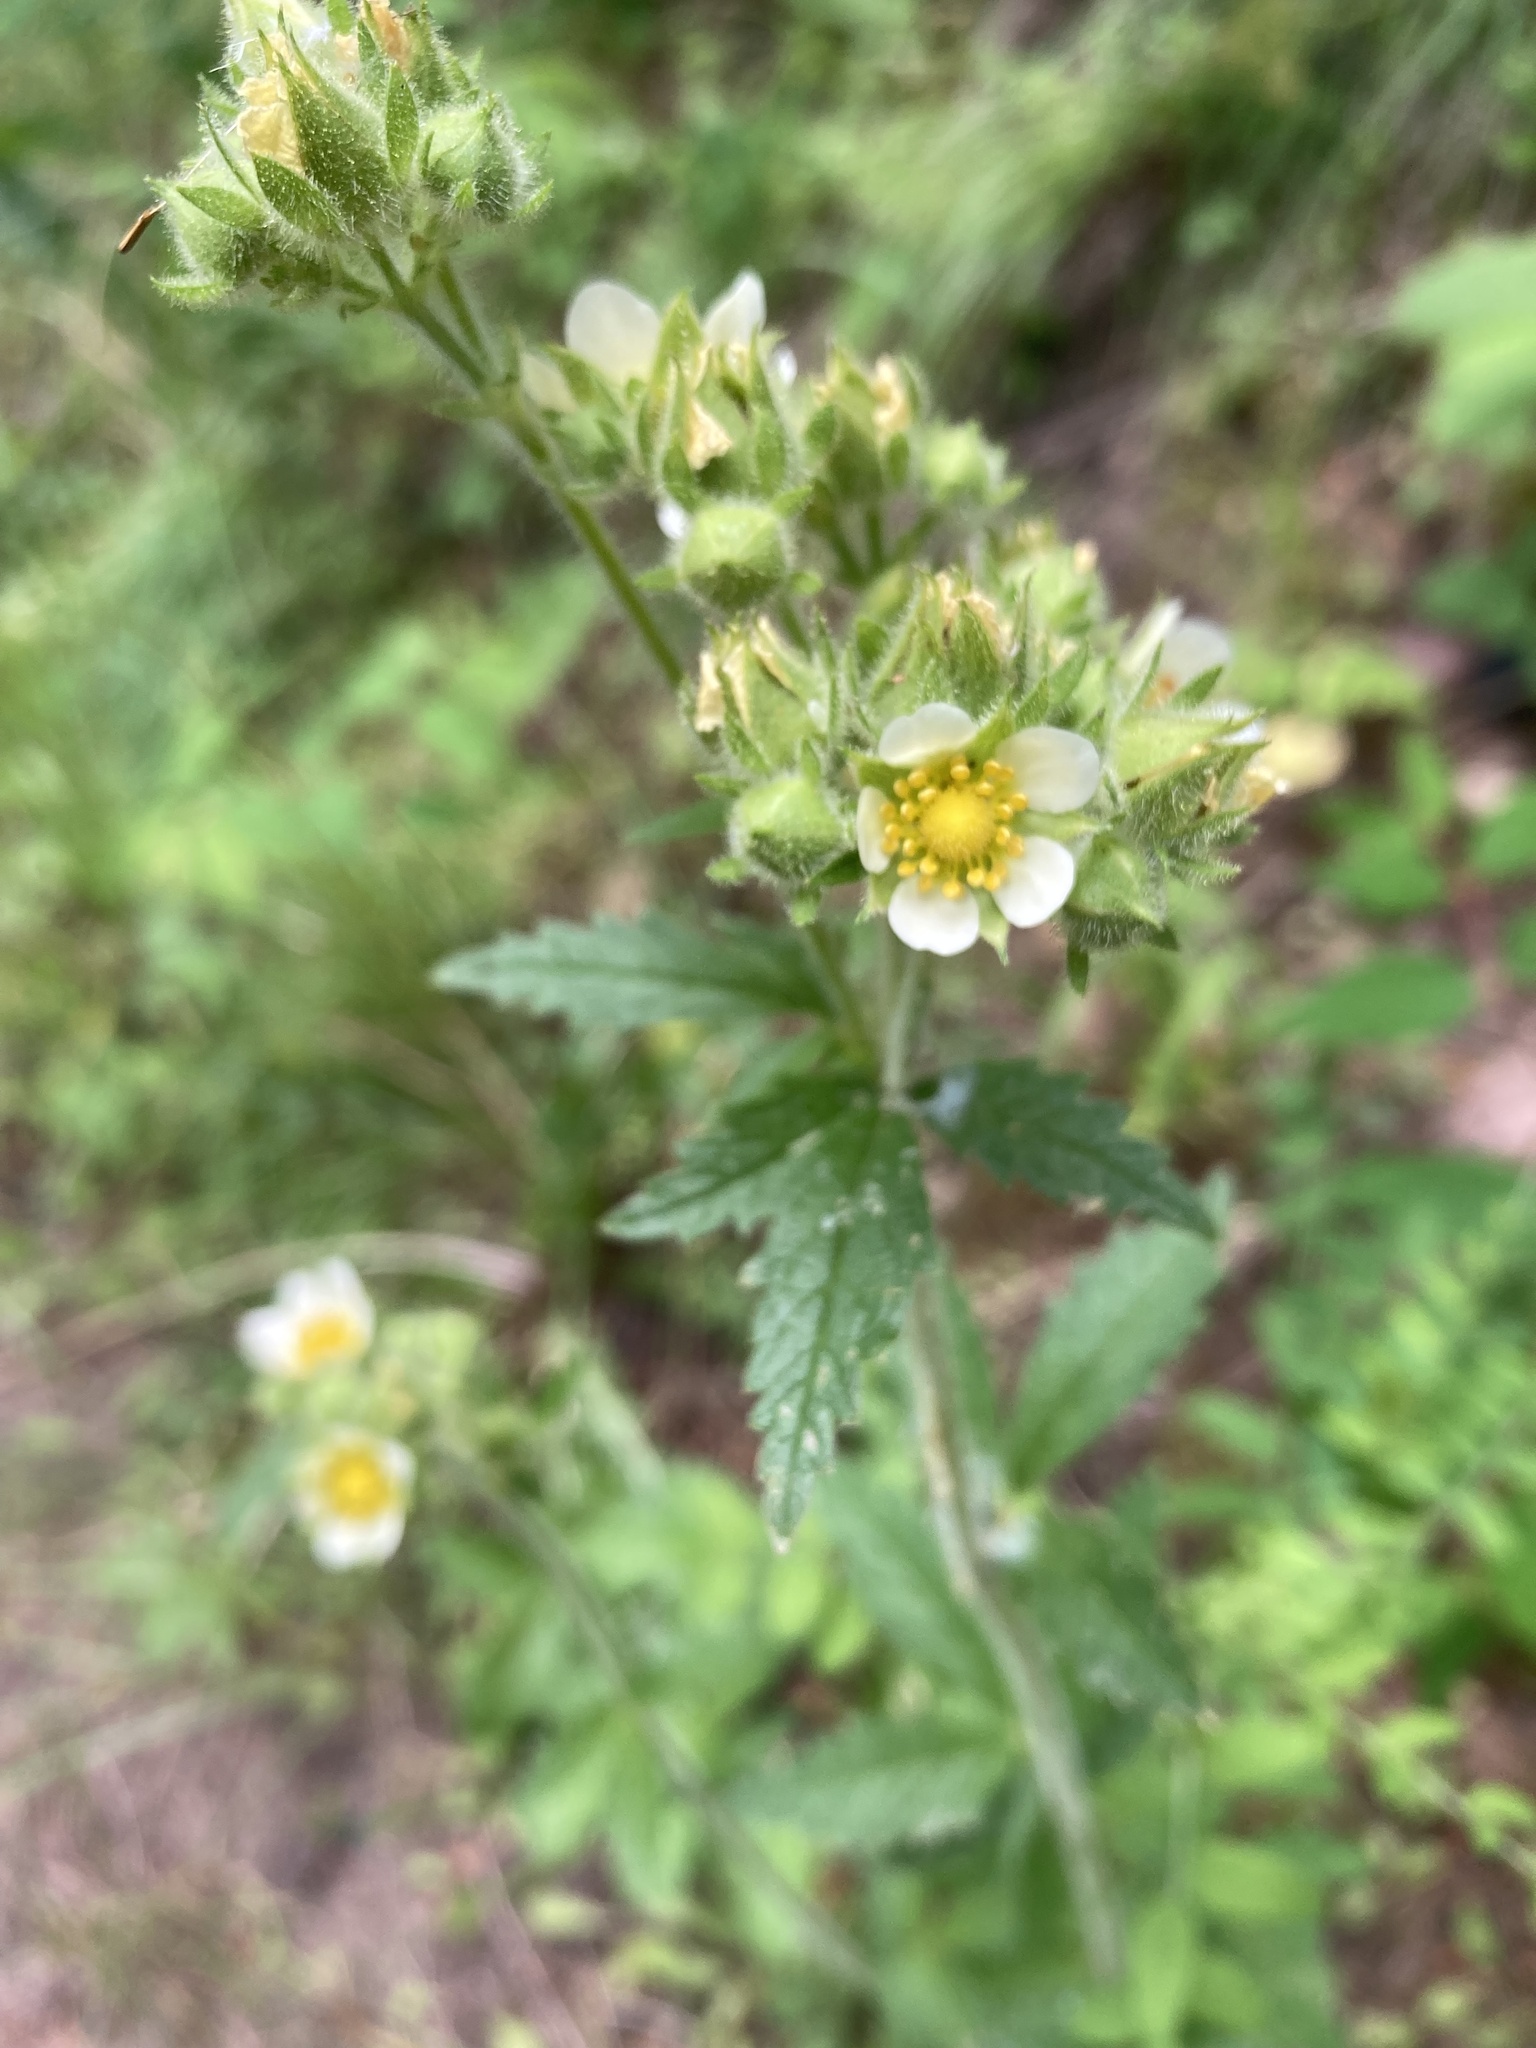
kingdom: Plantae
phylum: Tracheophyta
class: Magnoliopsida
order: Rosales
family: Rosaceae
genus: Drymocallis
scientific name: Drymocallis arguta
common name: Tall cinquefoil
